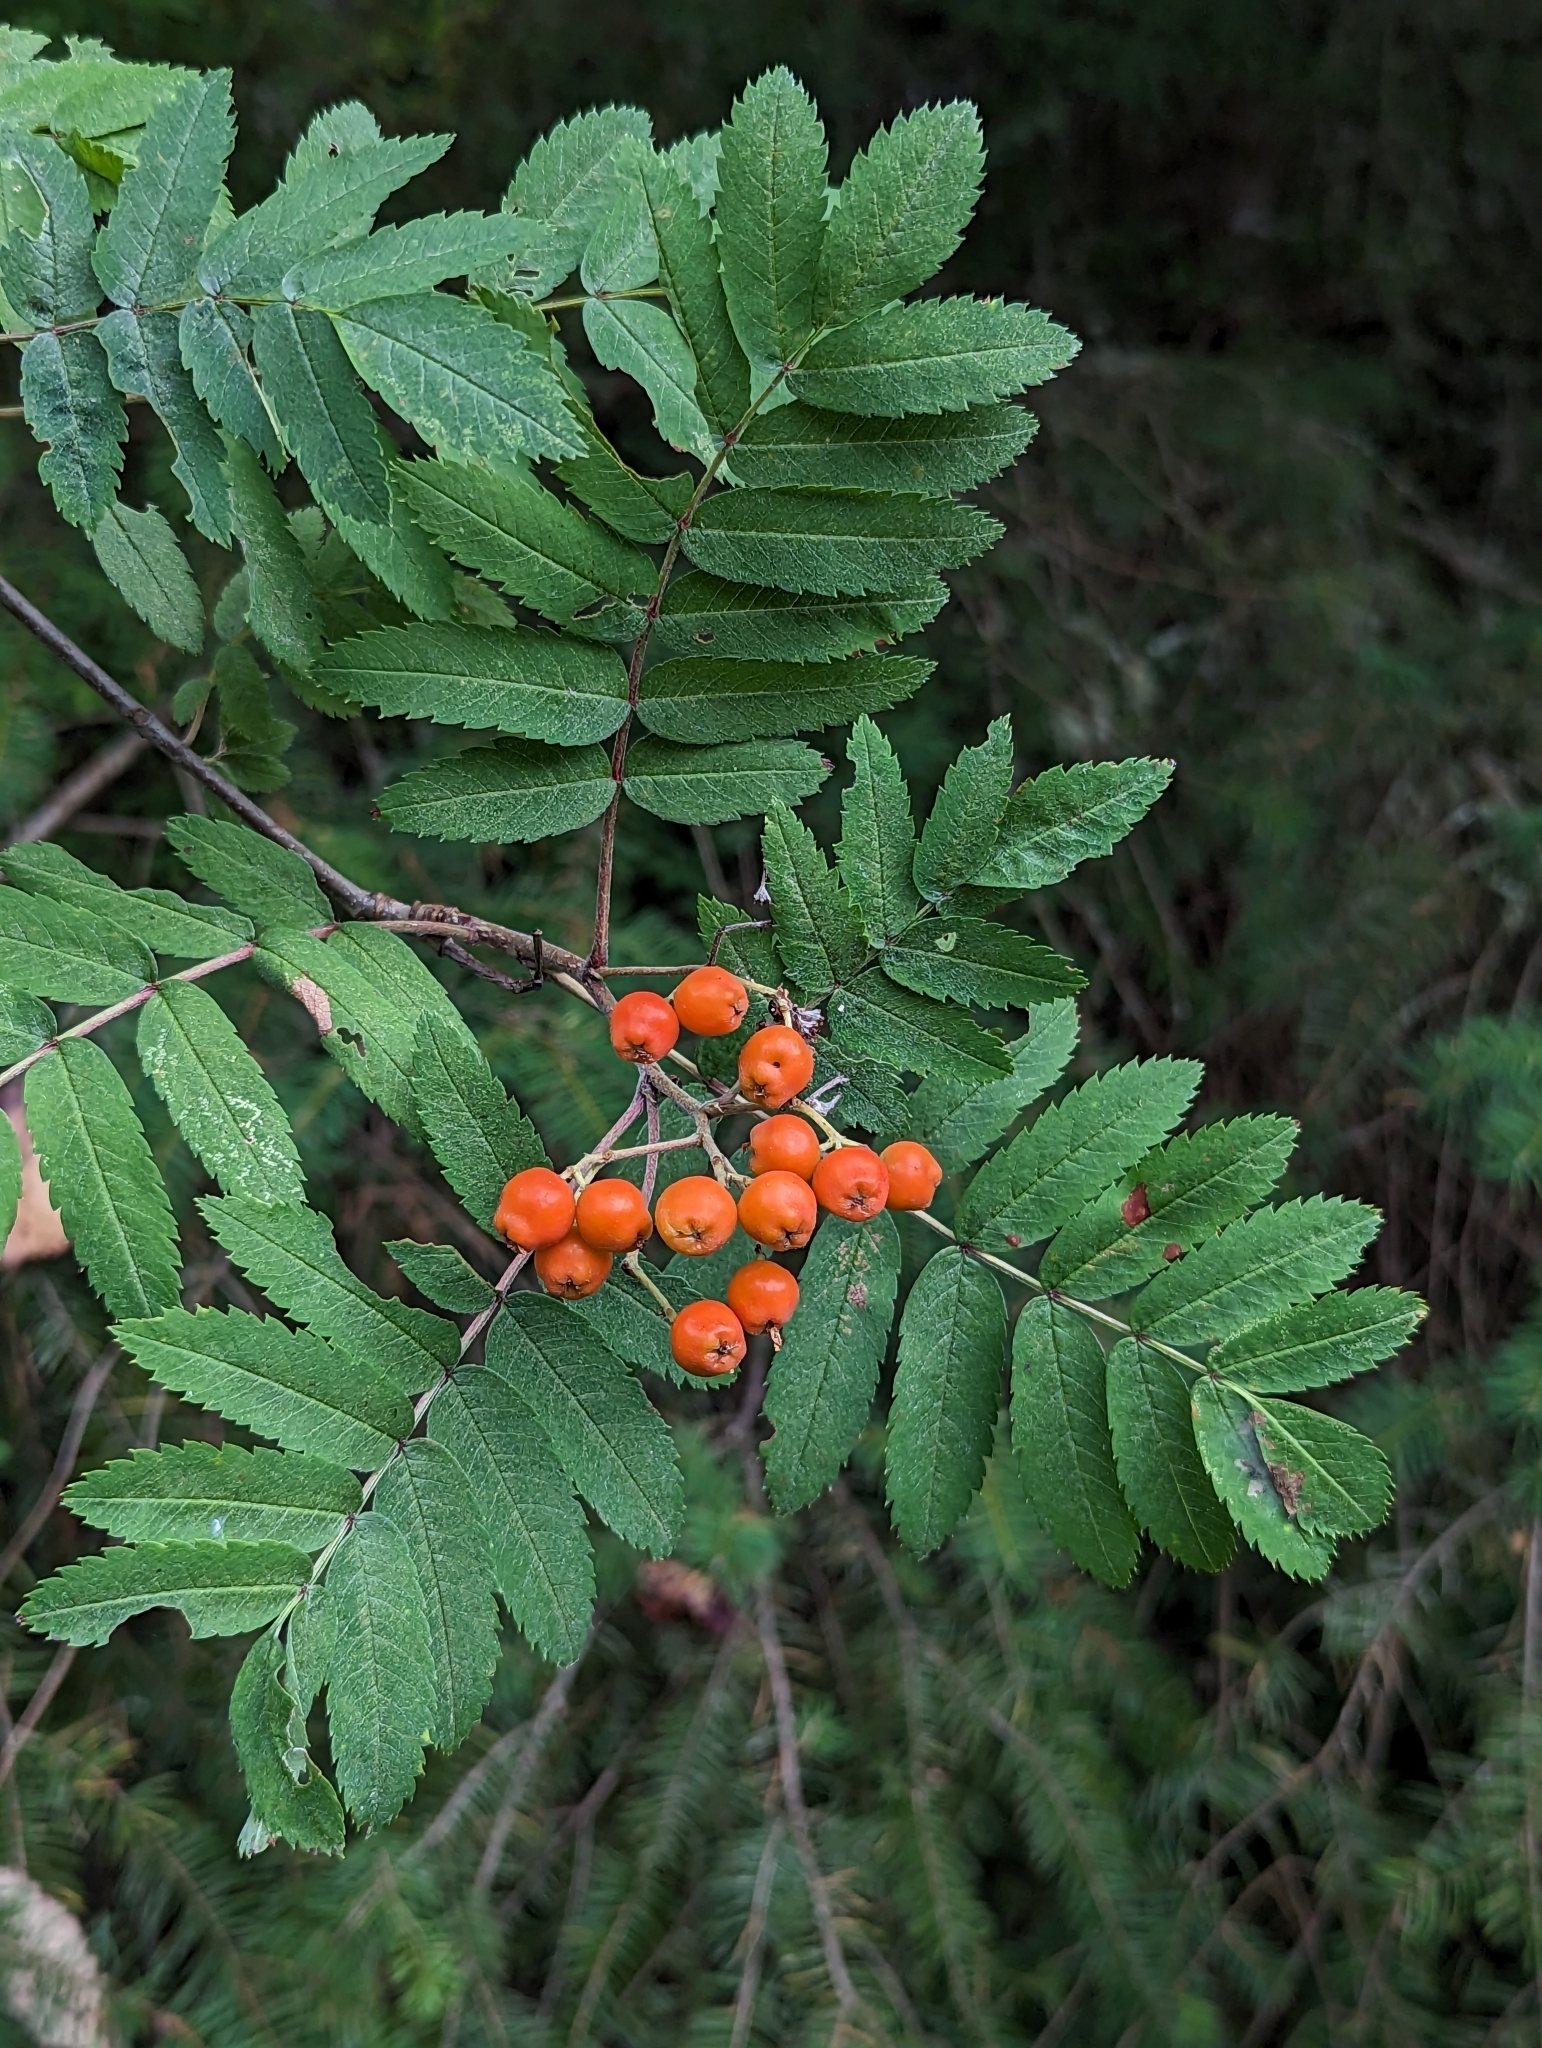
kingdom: Plantae
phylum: Tracheophyta
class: Magnoliopsida
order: Rosales
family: Rosaceae
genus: Sorbus
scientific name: Sorbus aucuparia
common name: Rowan
